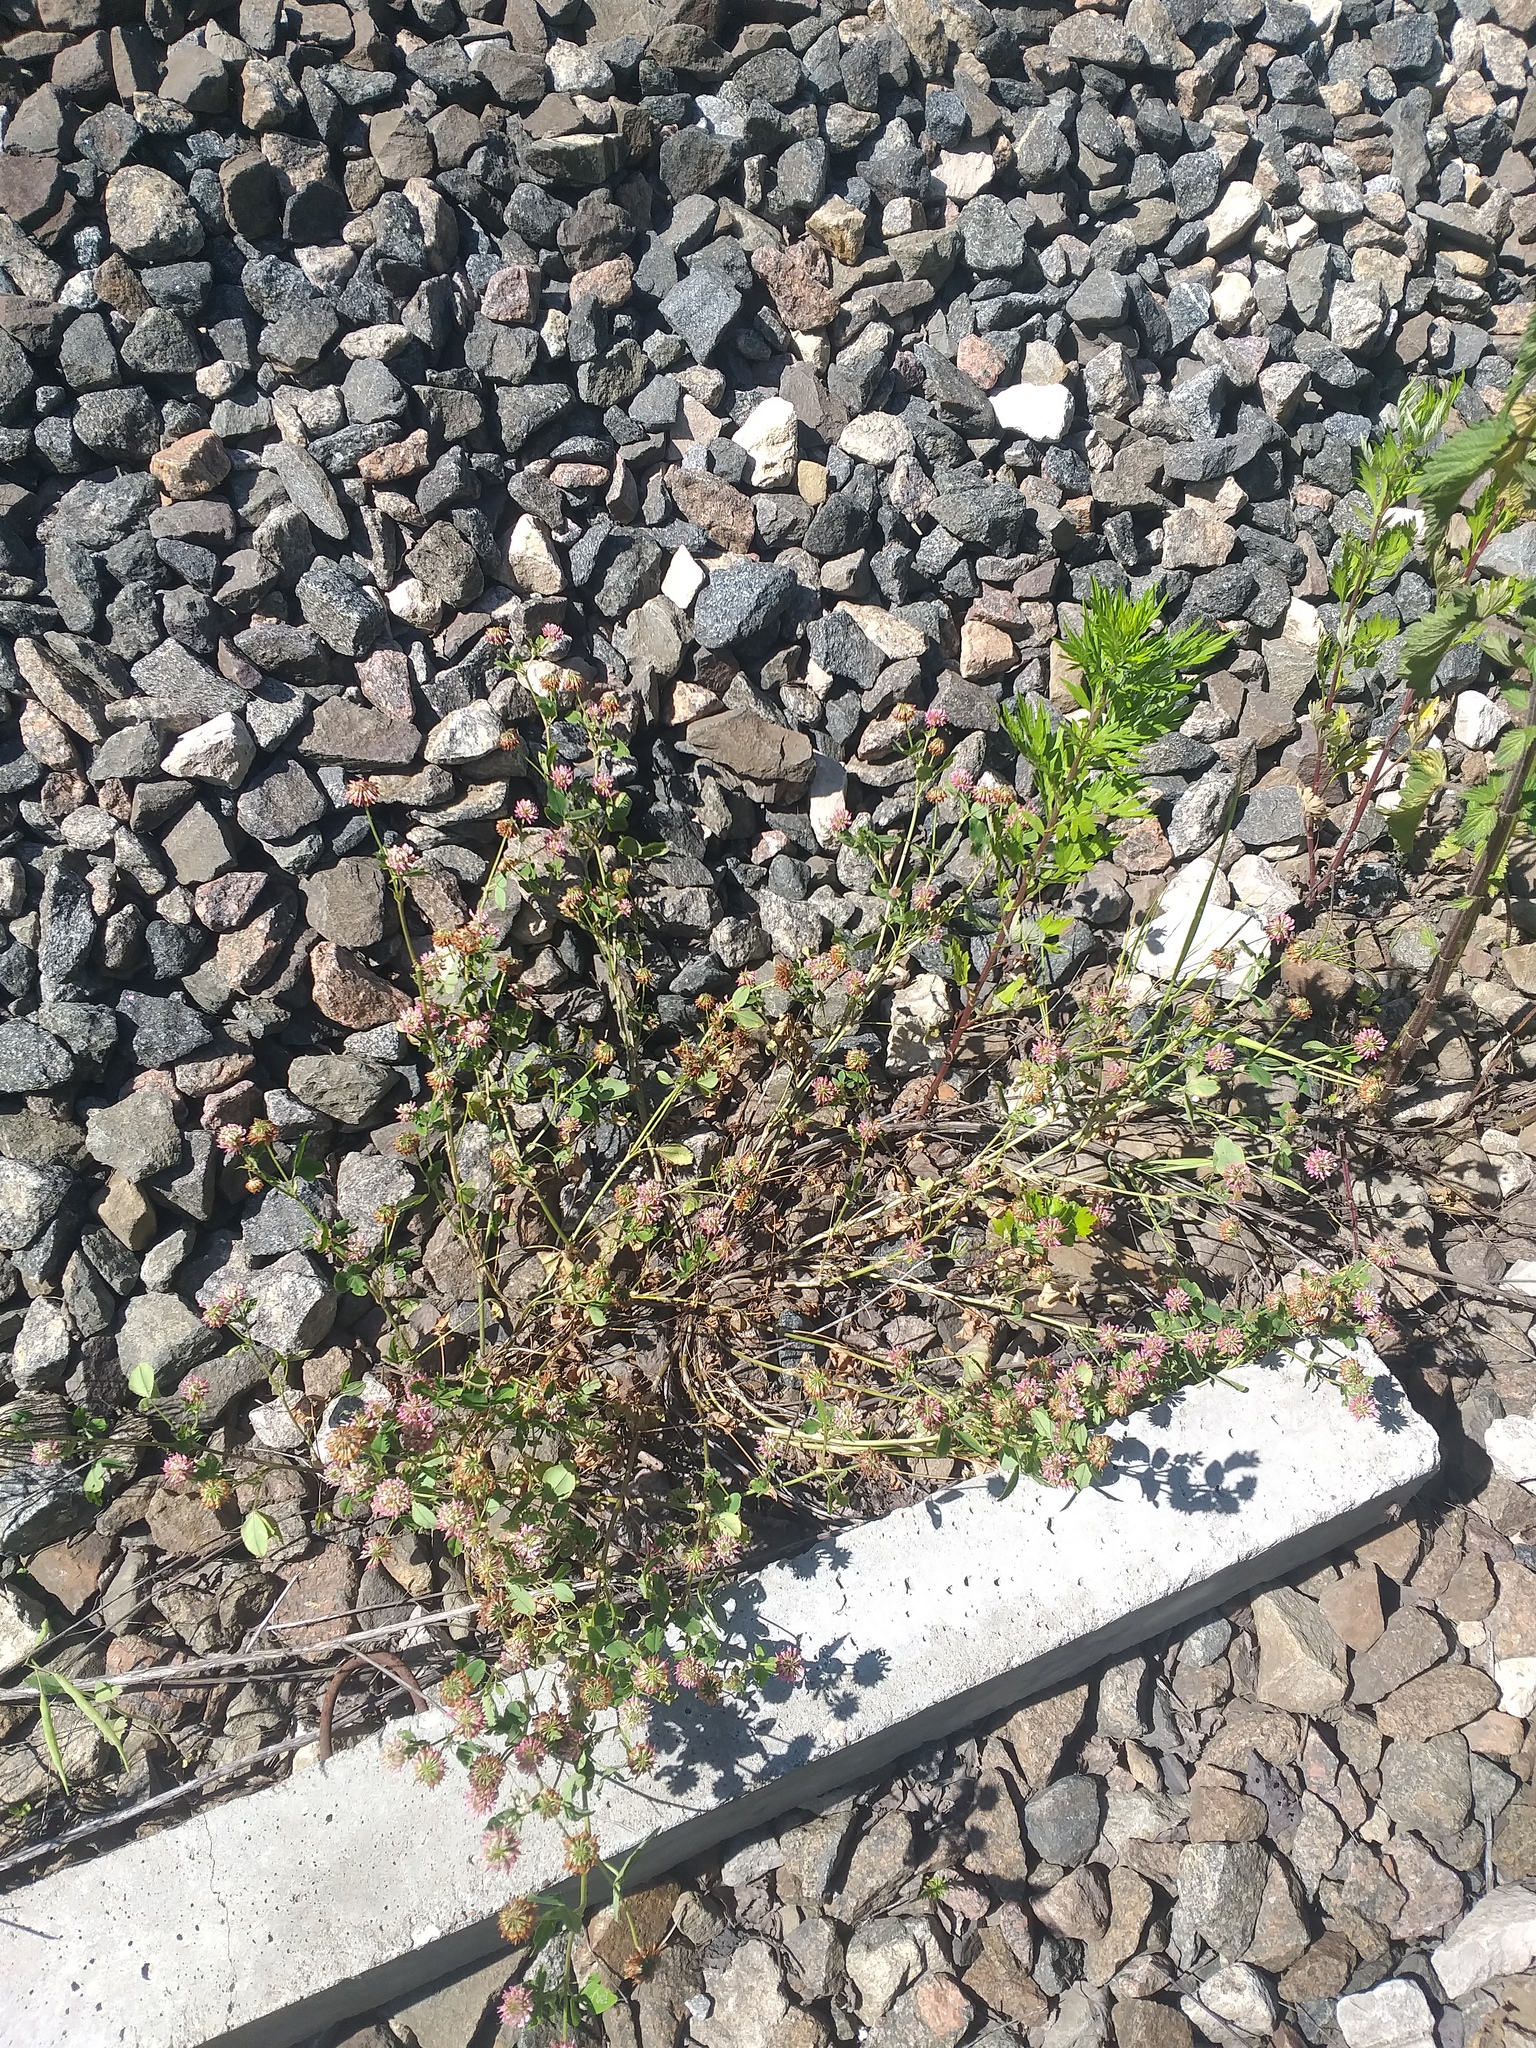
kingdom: Plantae
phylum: Tracheophyta
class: Magnoliopsida
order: Fabales
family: Fabaceae
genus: Trifolium
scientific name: Trifolium hybridum
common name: Alsike clover
